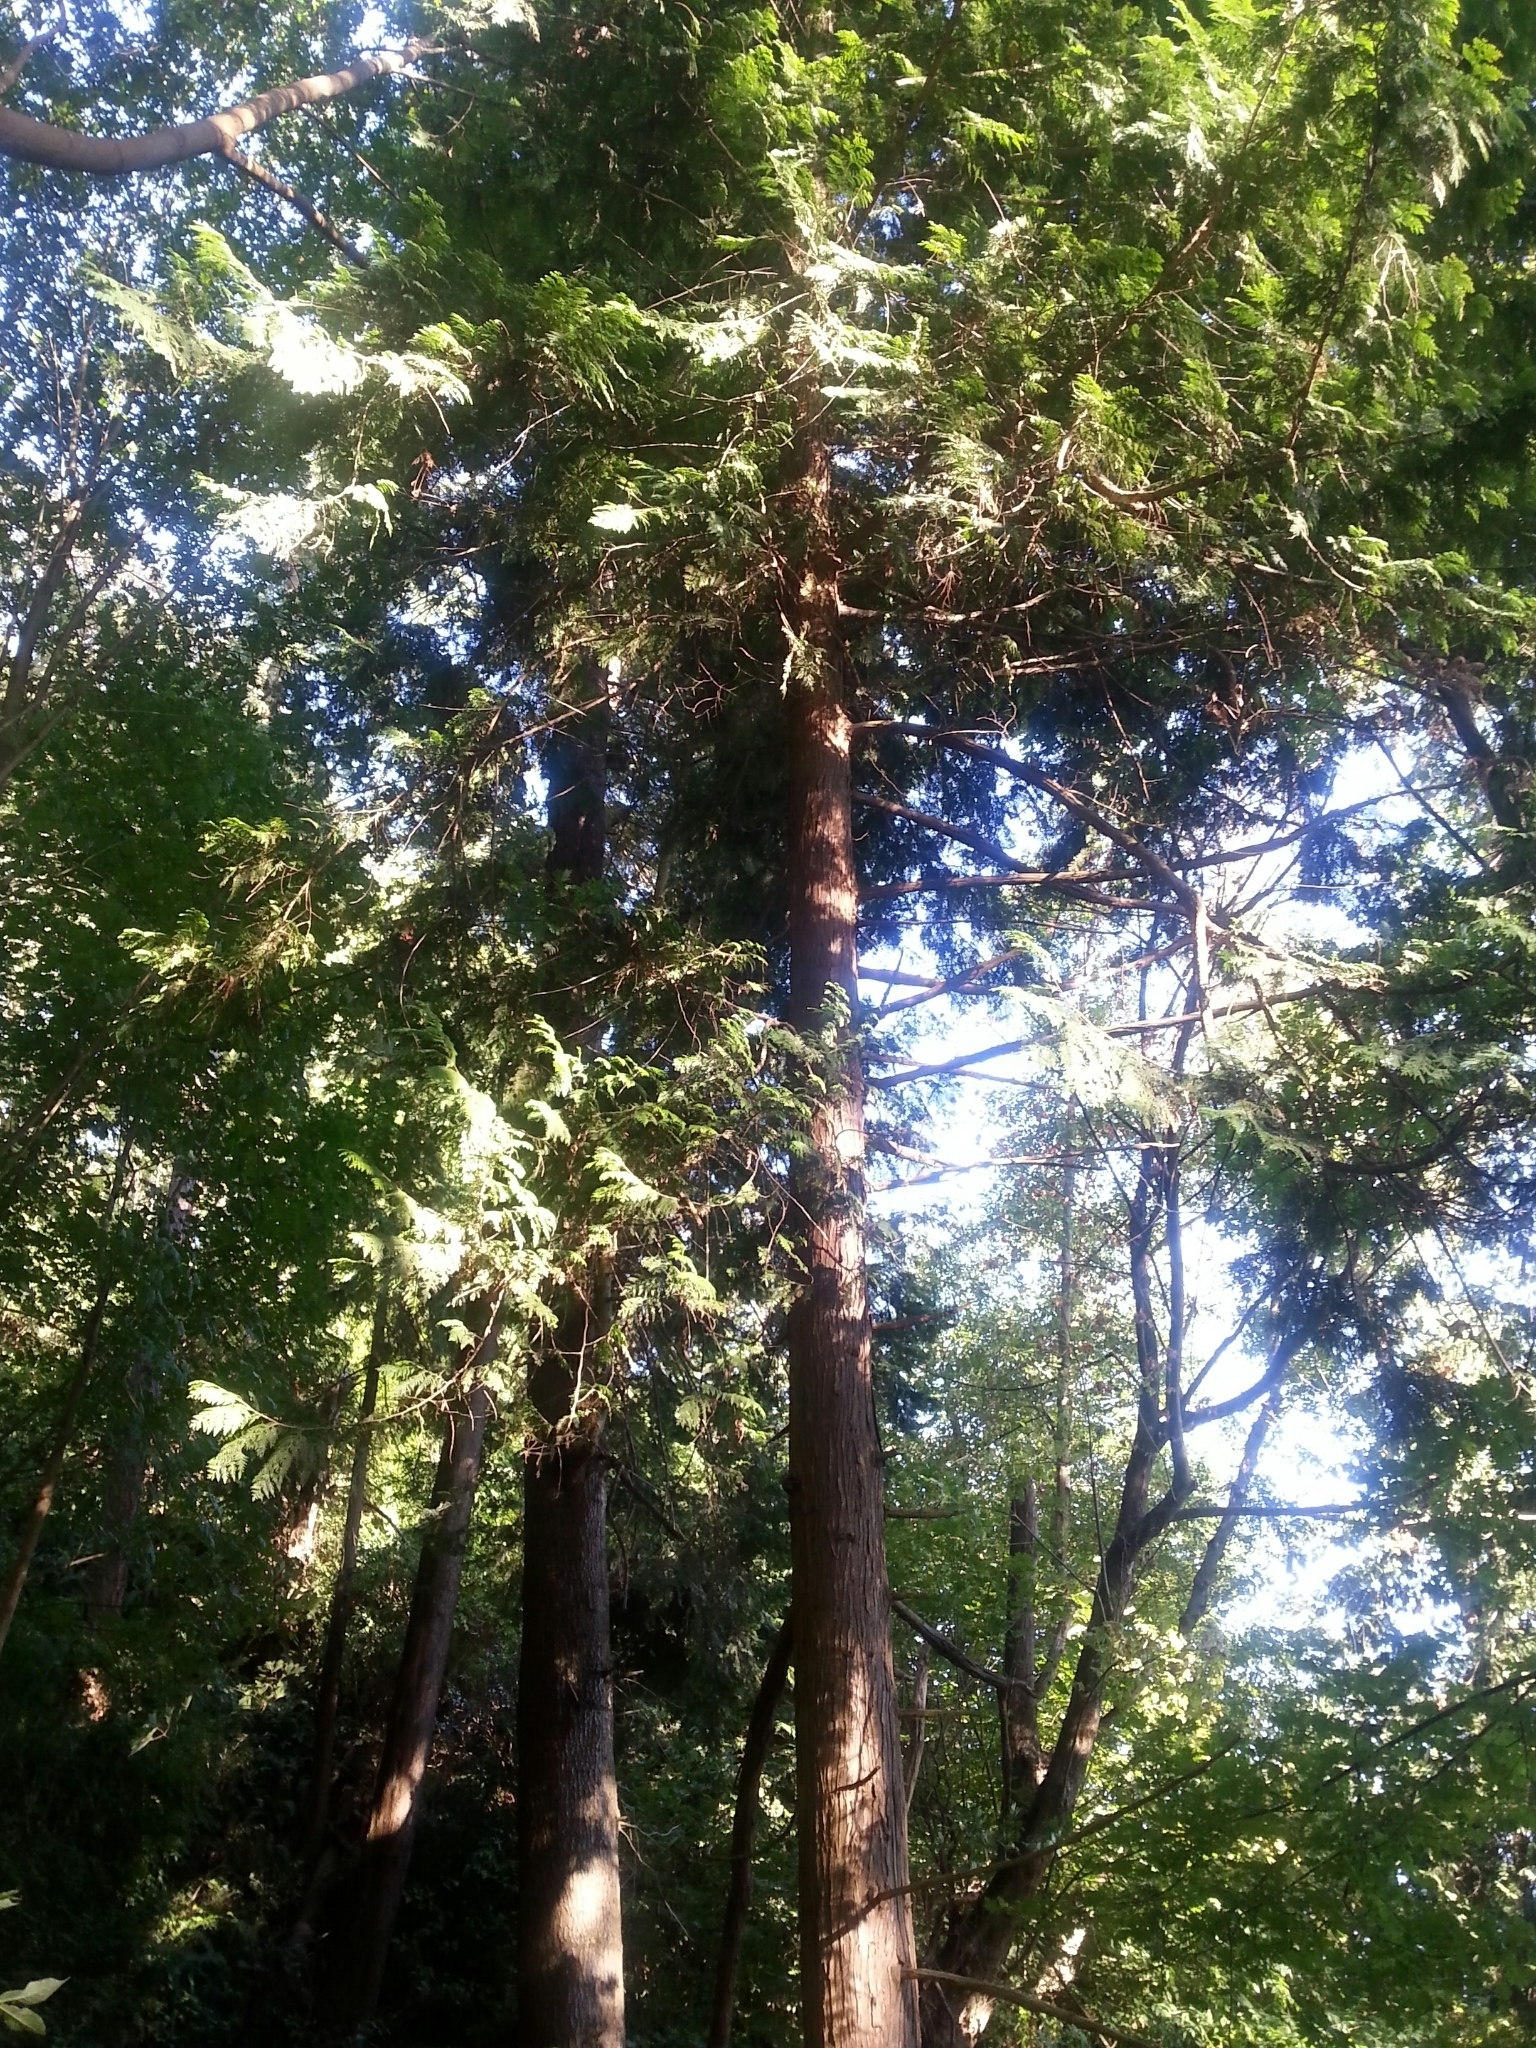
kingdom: Plantae
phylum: Tracheophyta
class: Pinopsida
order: Pinales
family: Cupressaceae
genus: Thuja
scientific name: Thuja plicata
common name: Western red-cedar
